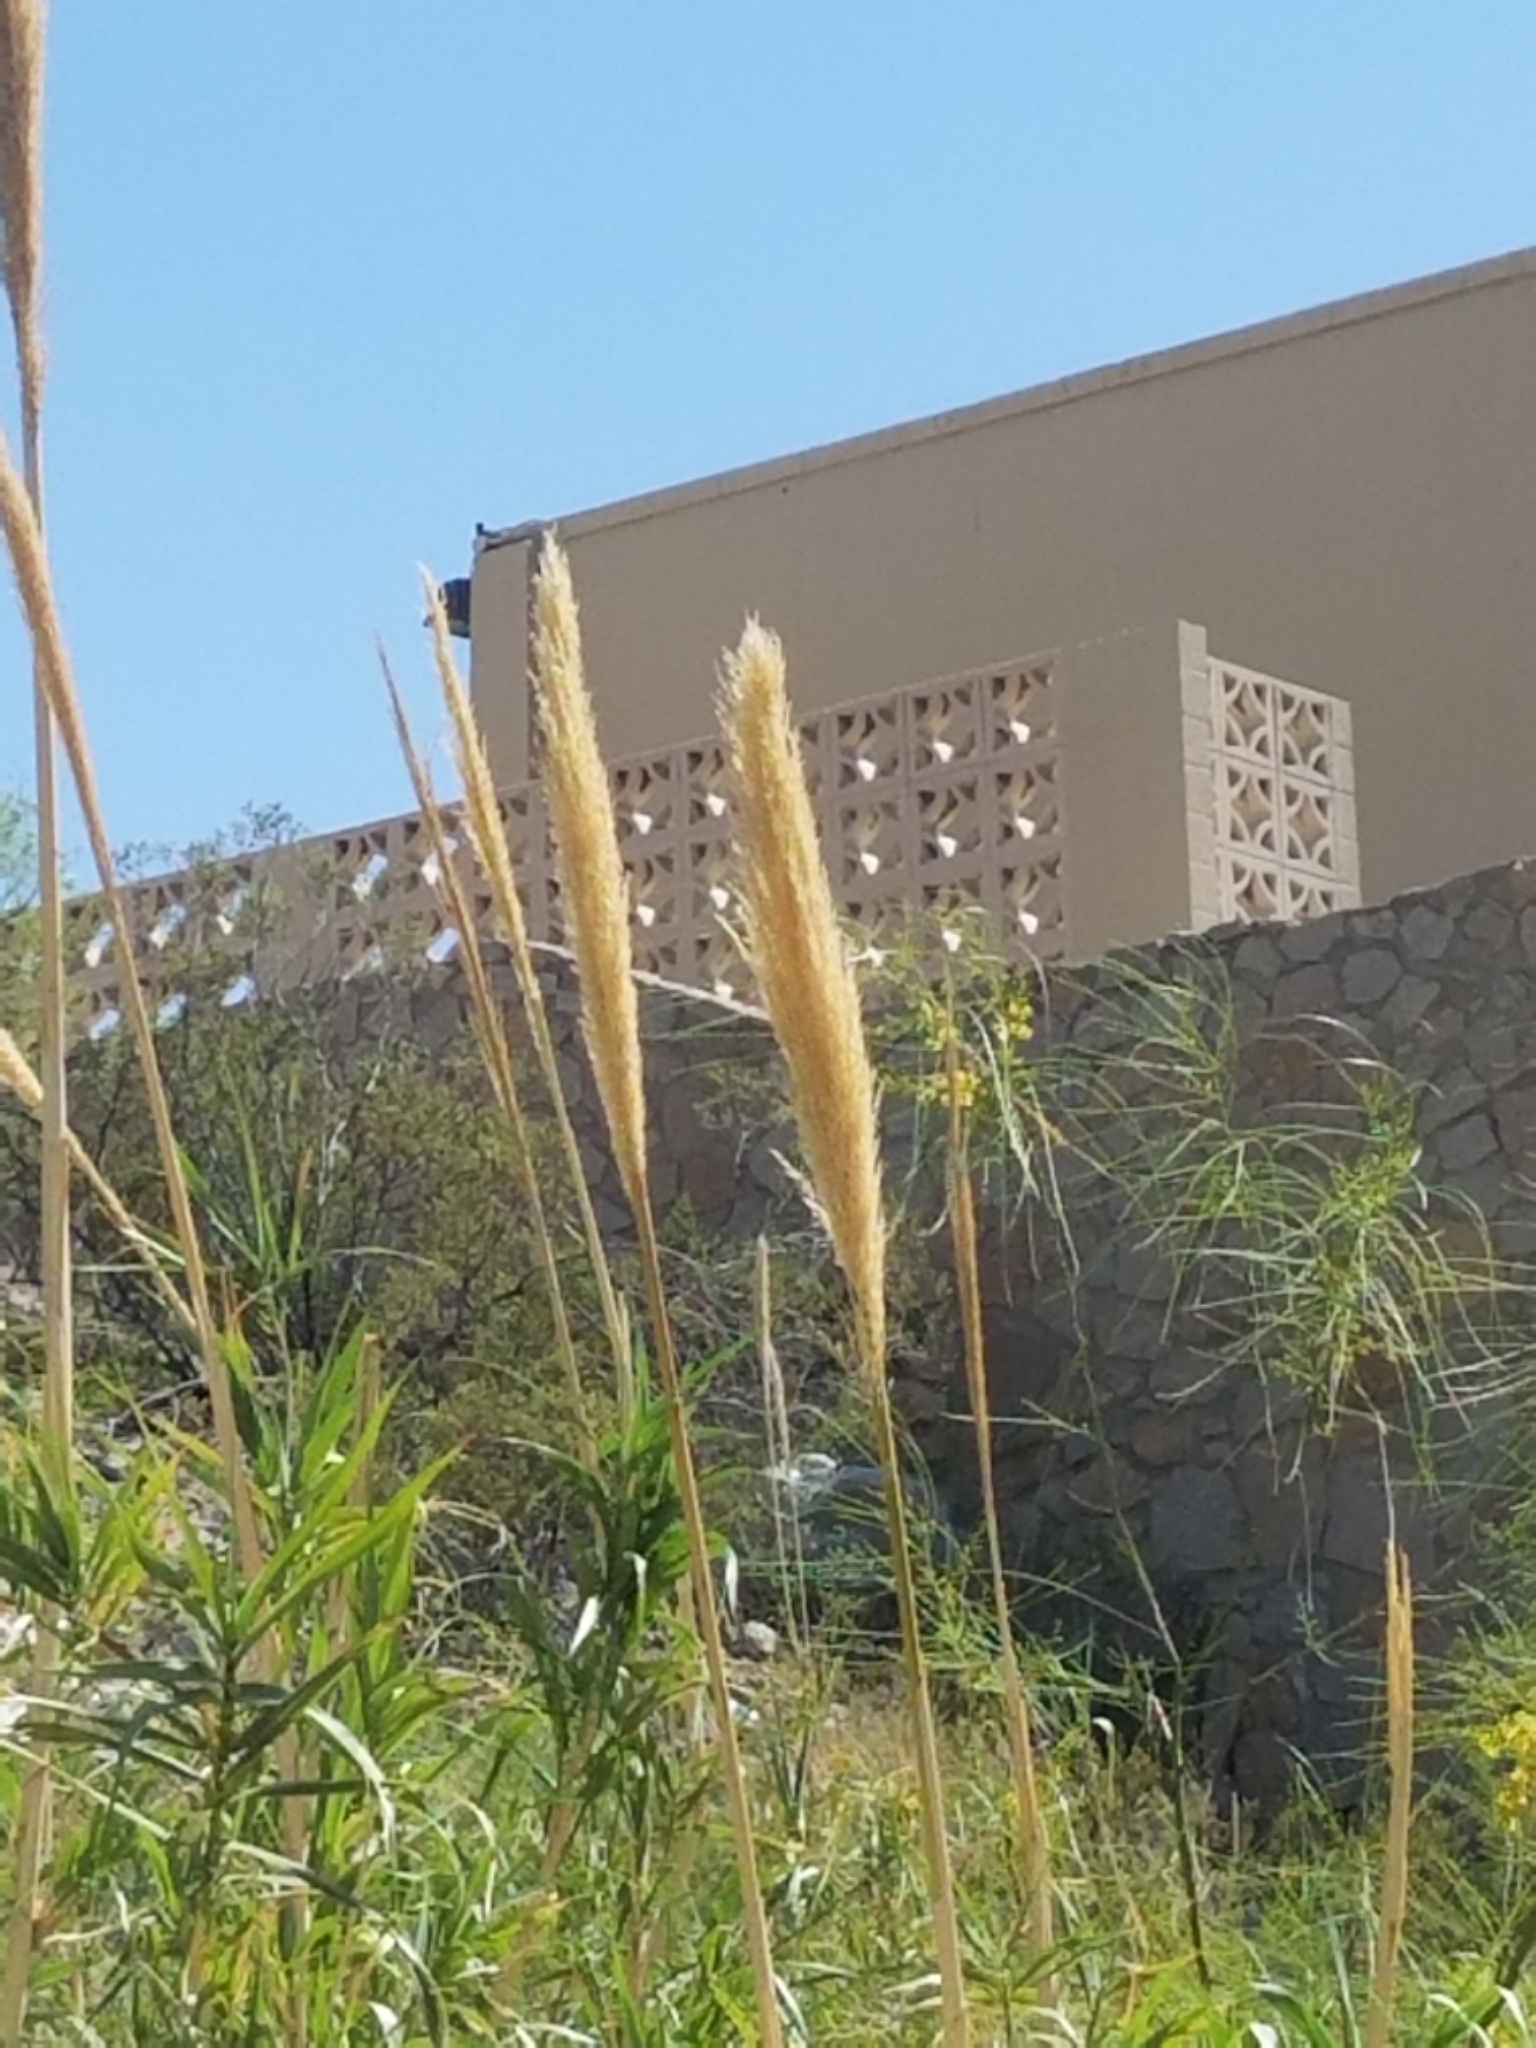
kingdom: Plantae
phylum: Tracheophyta
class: Liliopsida
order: Poales
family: Poaceae
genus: Arundo
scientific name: Arundo donax
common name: Giant reed
